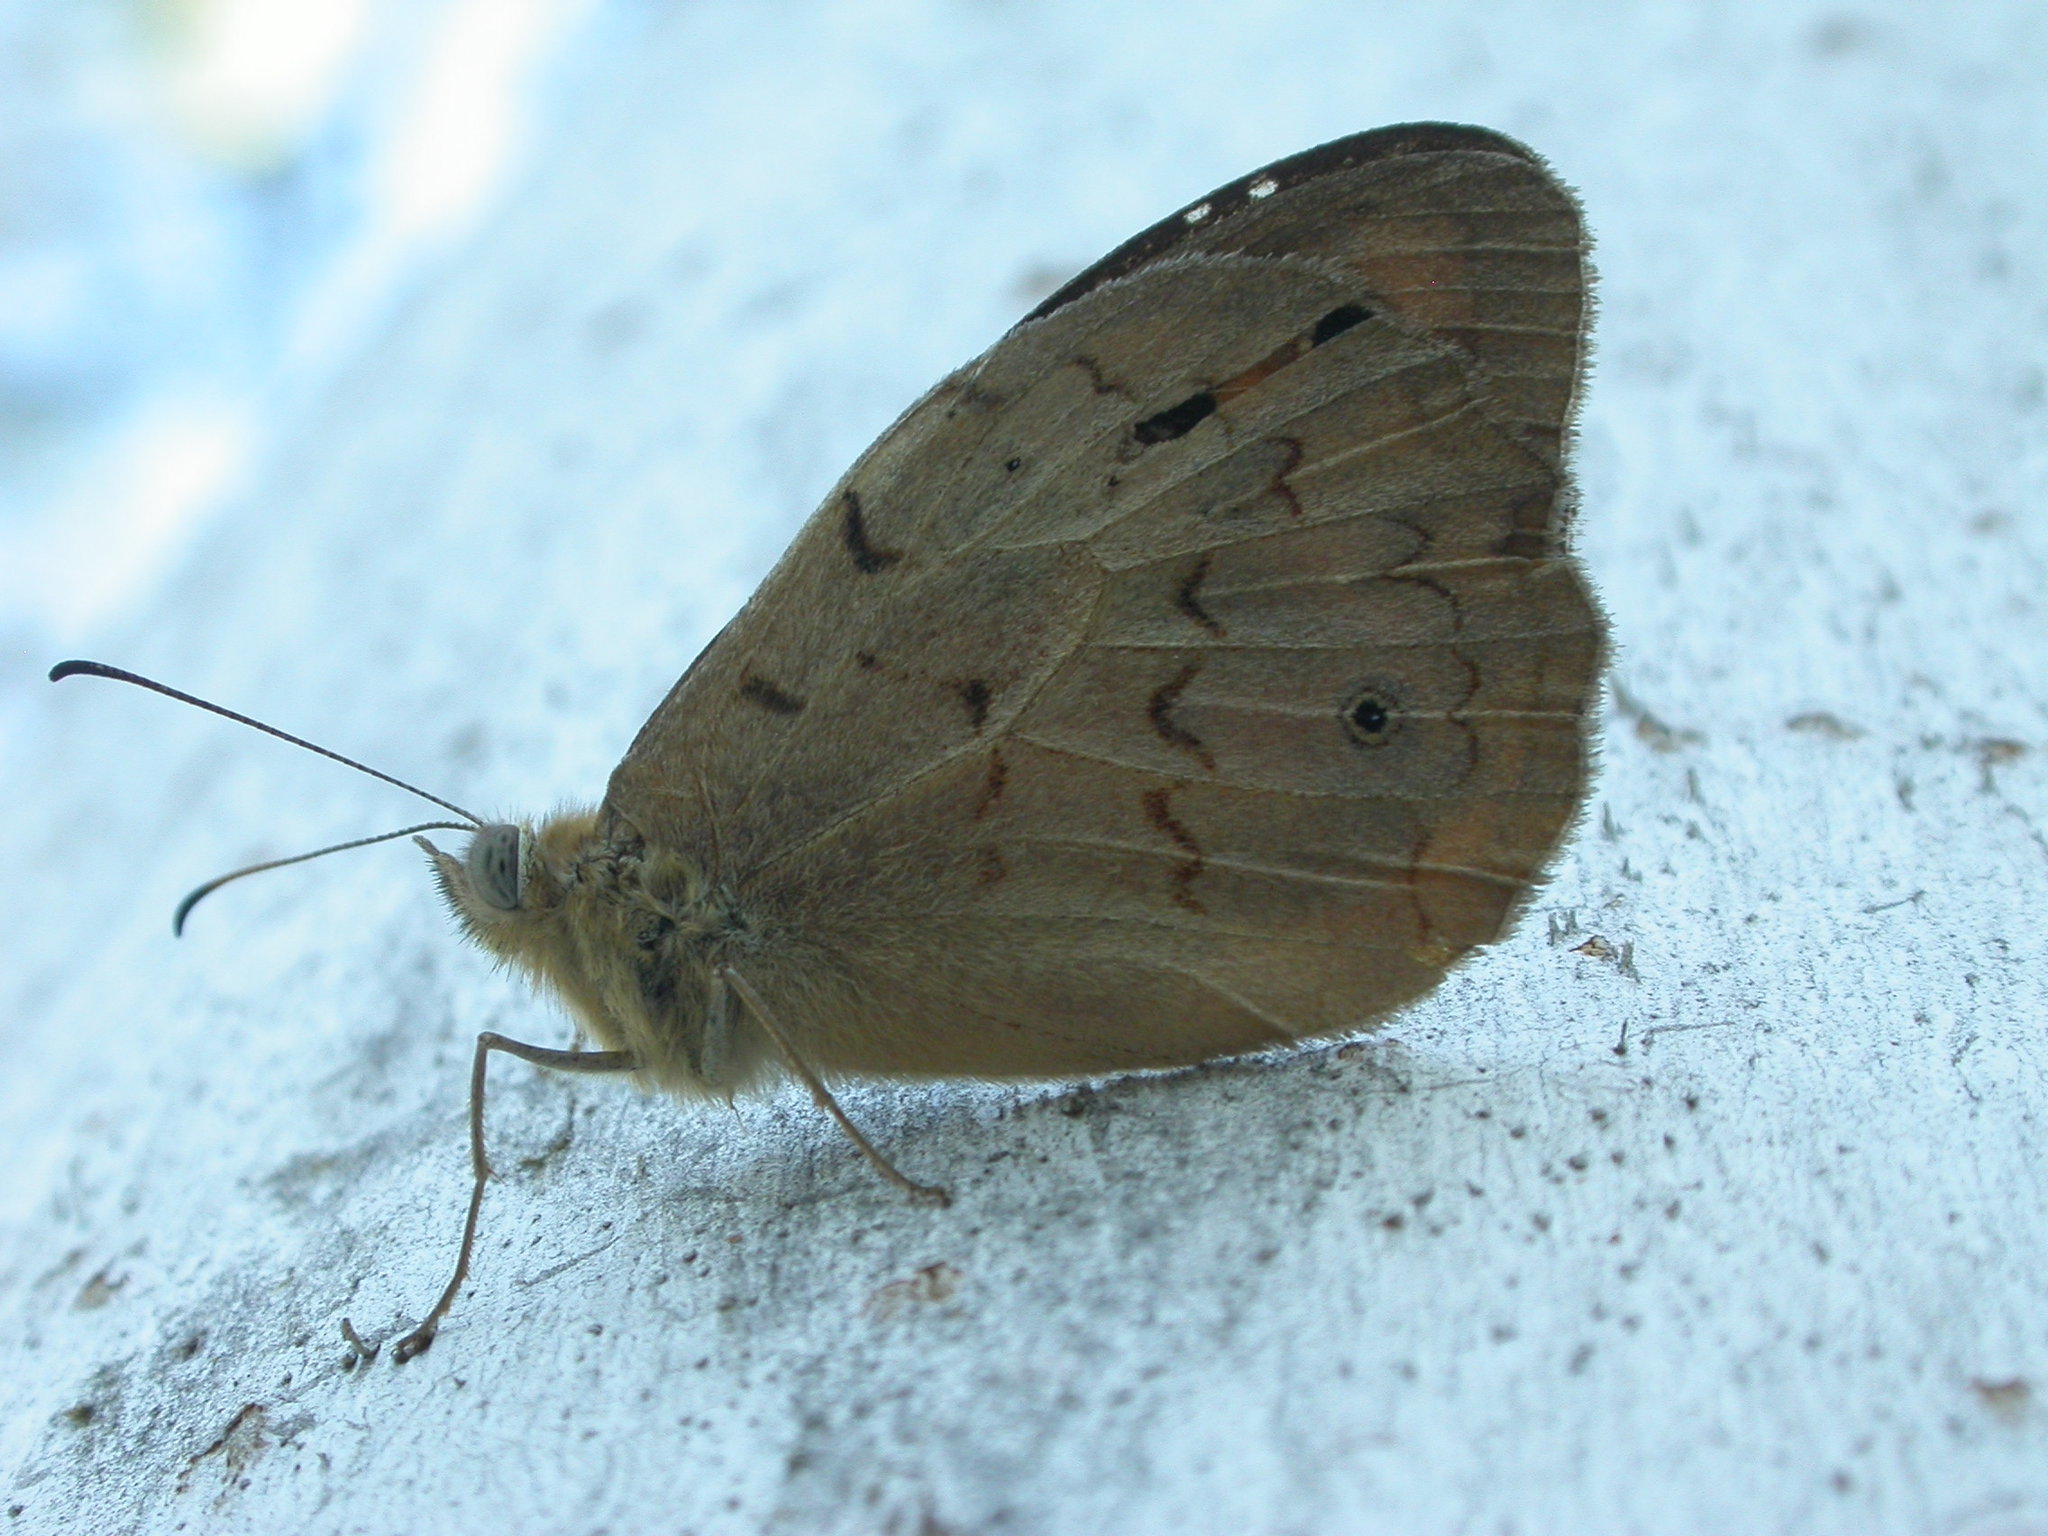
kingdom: Animalia
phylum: Arthropoda
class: Insecta
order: Lepidoptera
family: Nymphalidae
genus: Heteronympha
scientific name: Heteronympha merope
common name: Common brown
